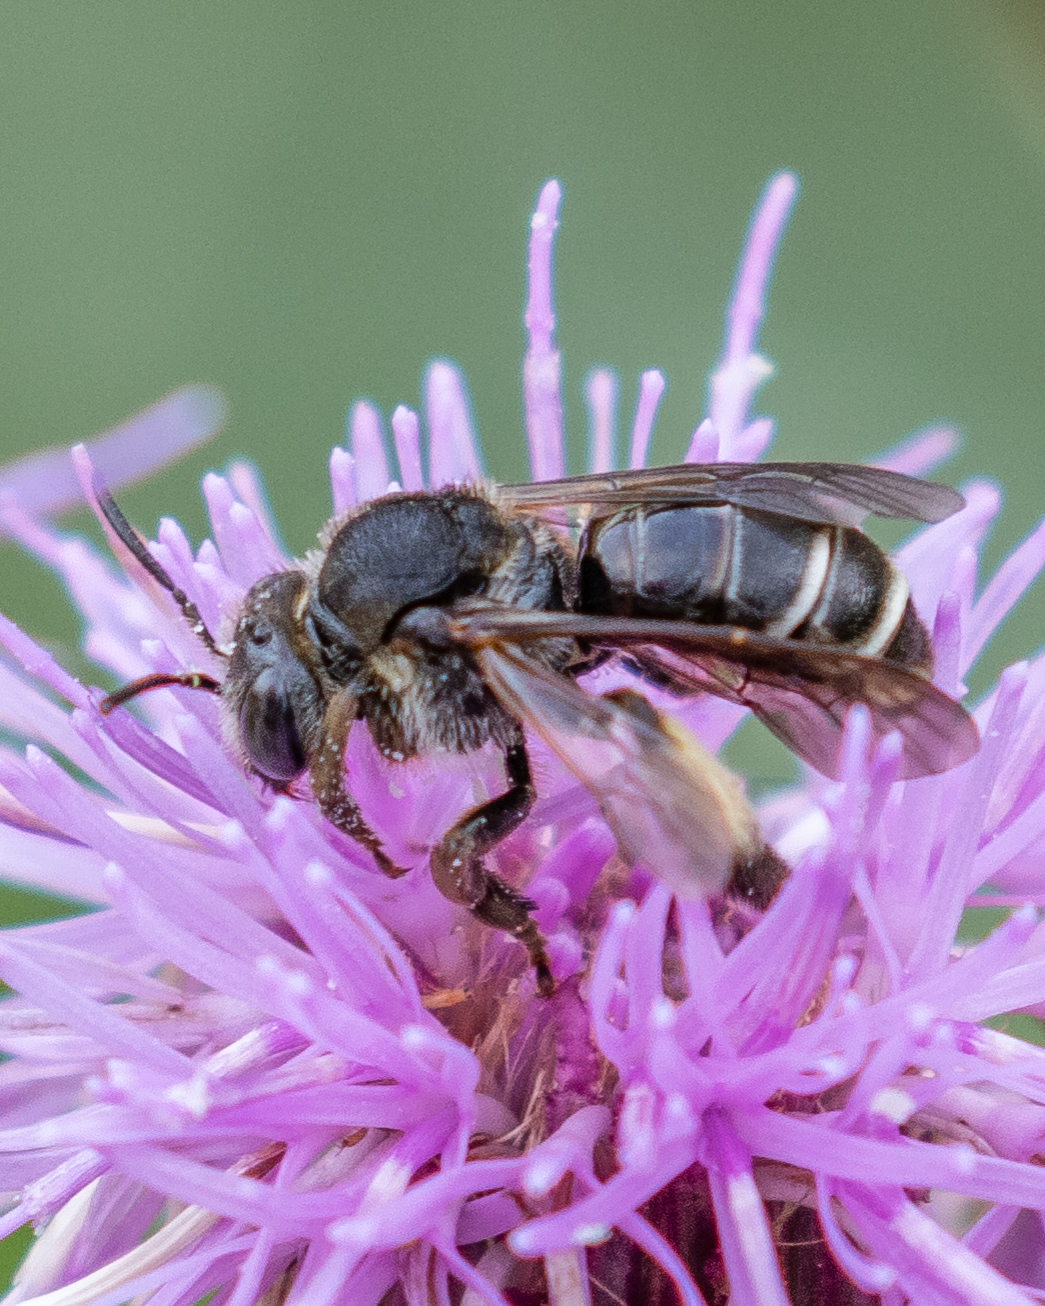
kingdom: Animalia
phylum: Arthropoda
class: Insecta
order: Hymenoptera
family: Melittidae
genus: Macropis
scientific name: Macropis europaea
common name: Yellow loosestrife bee
